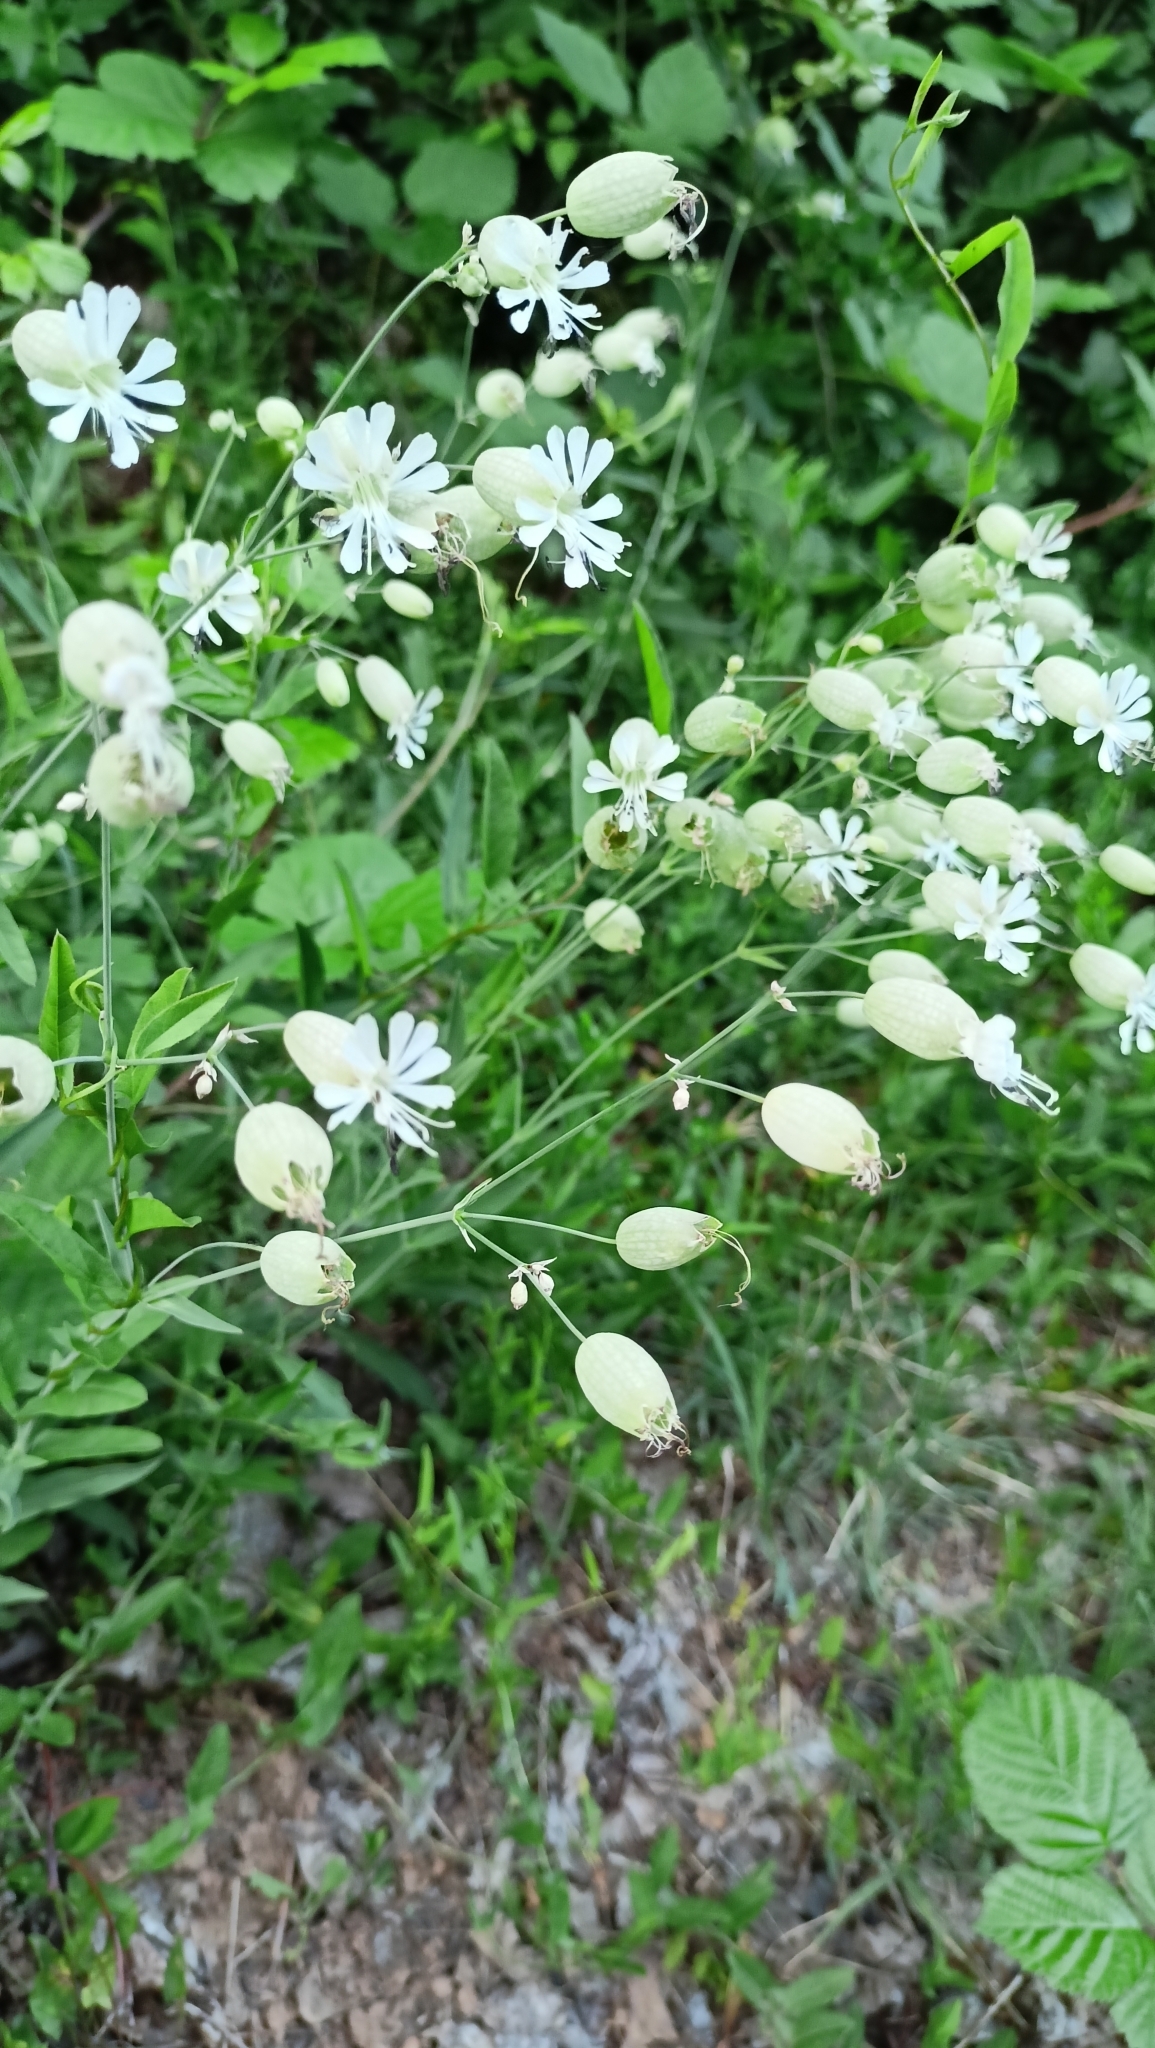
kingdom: Plantae
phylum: Tracheophyta
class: Magnoliopsida
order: Caryophyllales
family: Caryophyllaceae
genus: Silene
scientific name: Silene vulgaris
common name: Bladder campion
